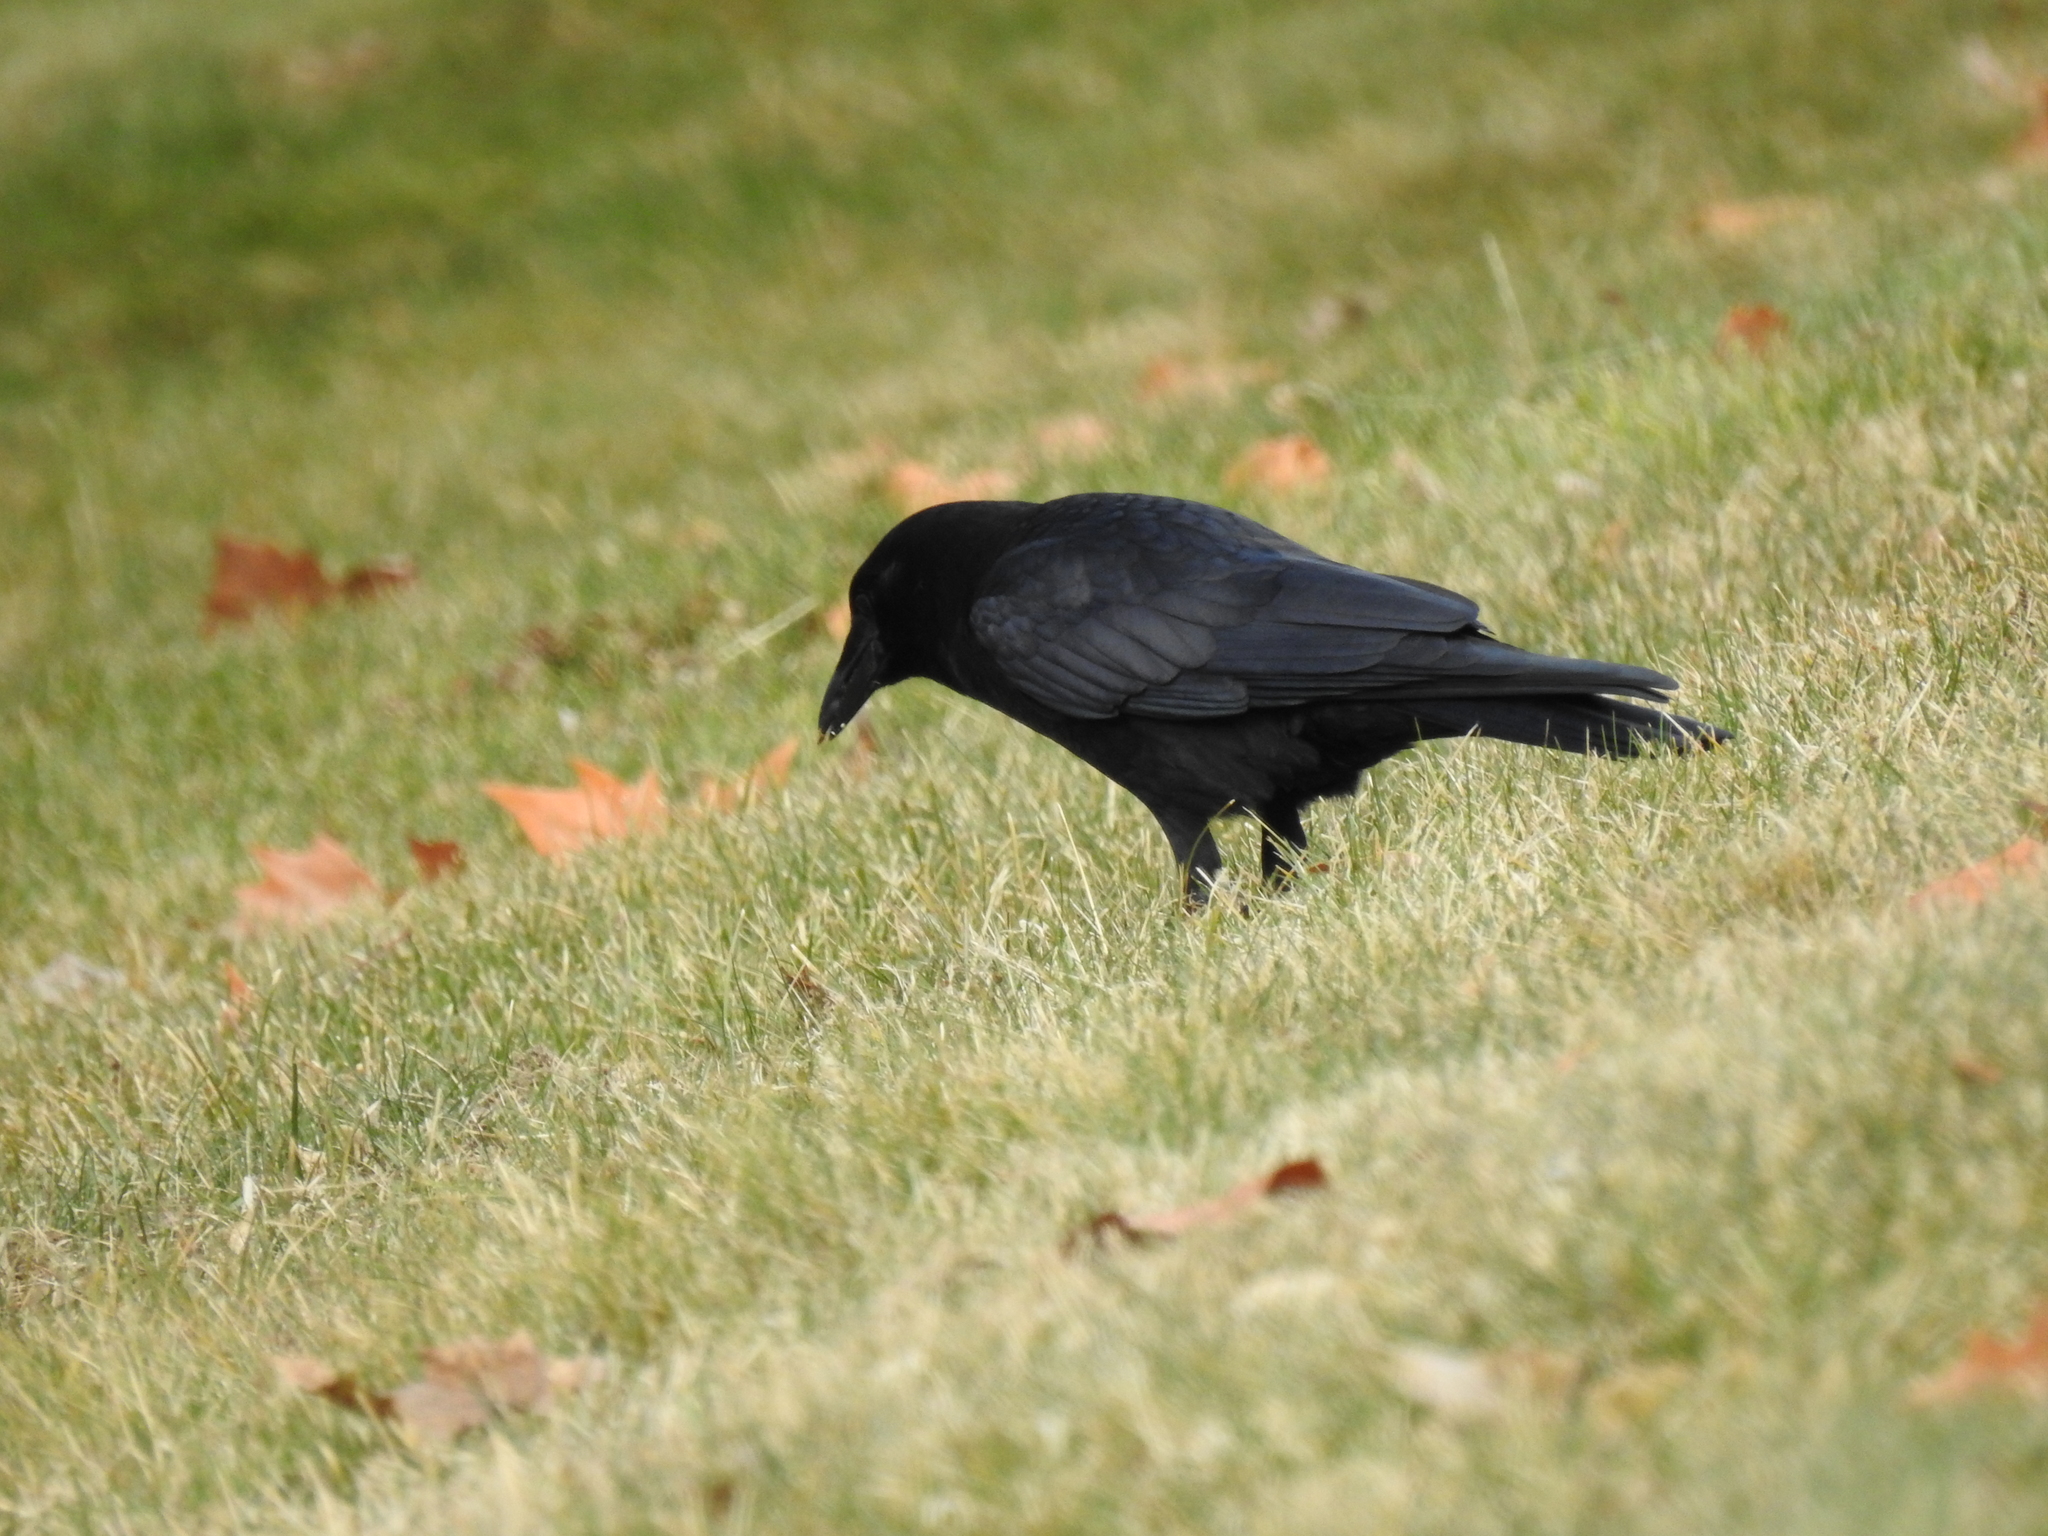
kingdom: Animalia
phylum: Chordata
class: Aves
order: Passeriformes
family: Corvidae
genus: Corvus
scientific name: Corvus brachyrhynchos
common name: American crow
